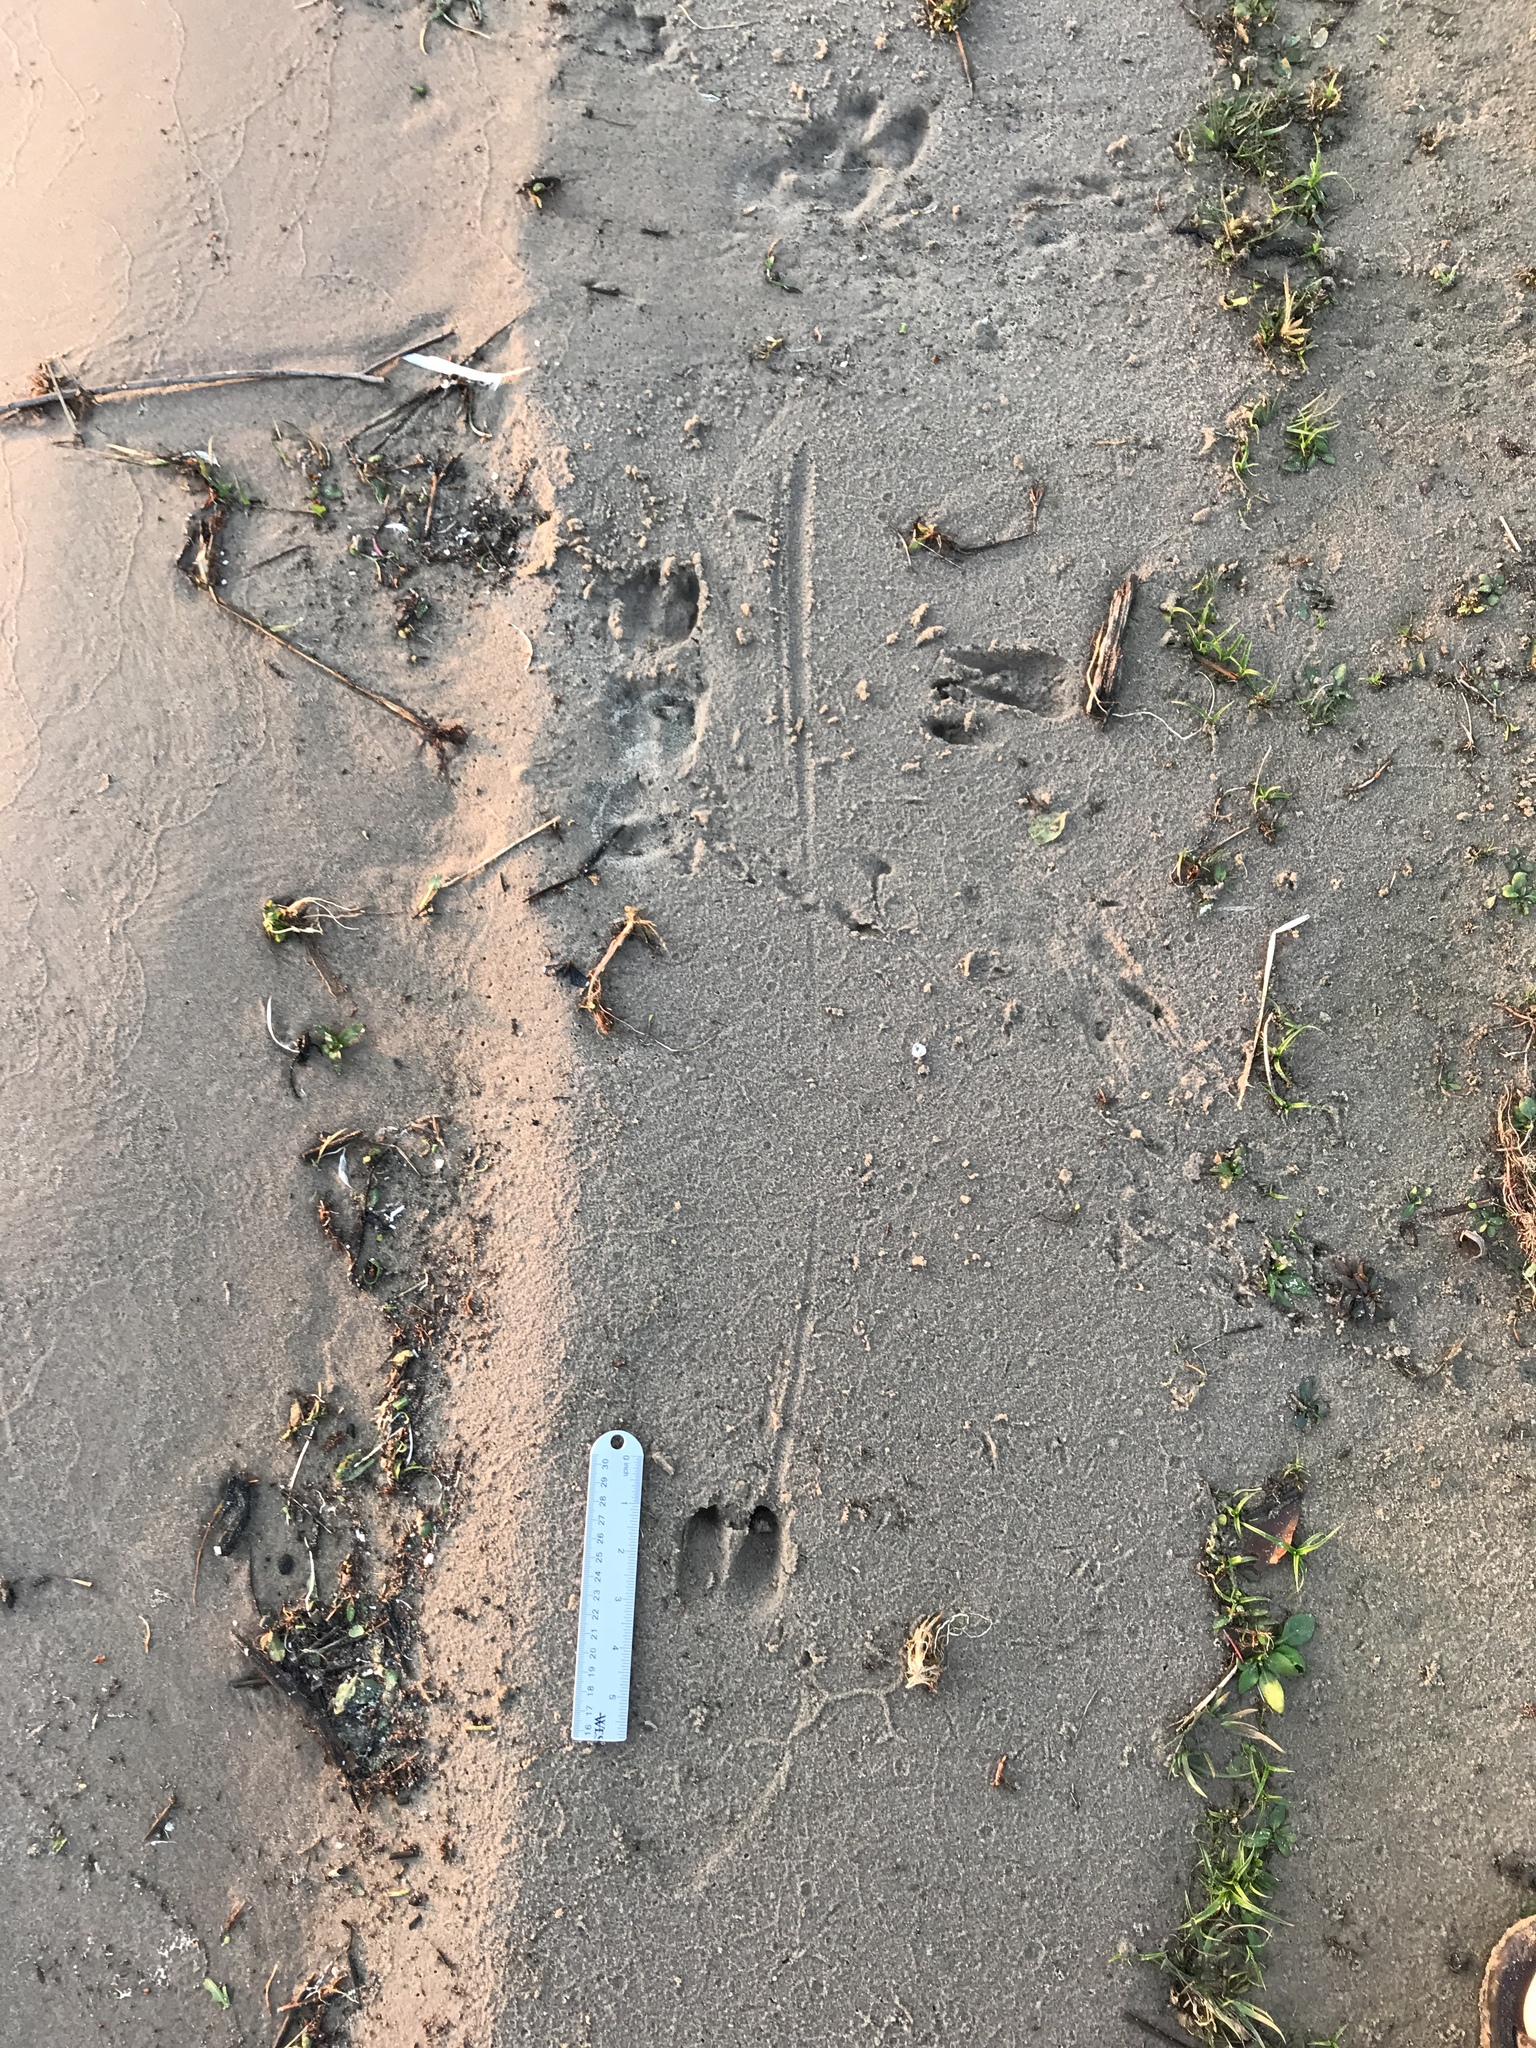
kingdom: Animalia
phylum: Chordata
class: Mammalia
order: Artiodactyla
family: Suidae
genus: Sus
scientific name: Sus scrofa
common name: Wild boar
